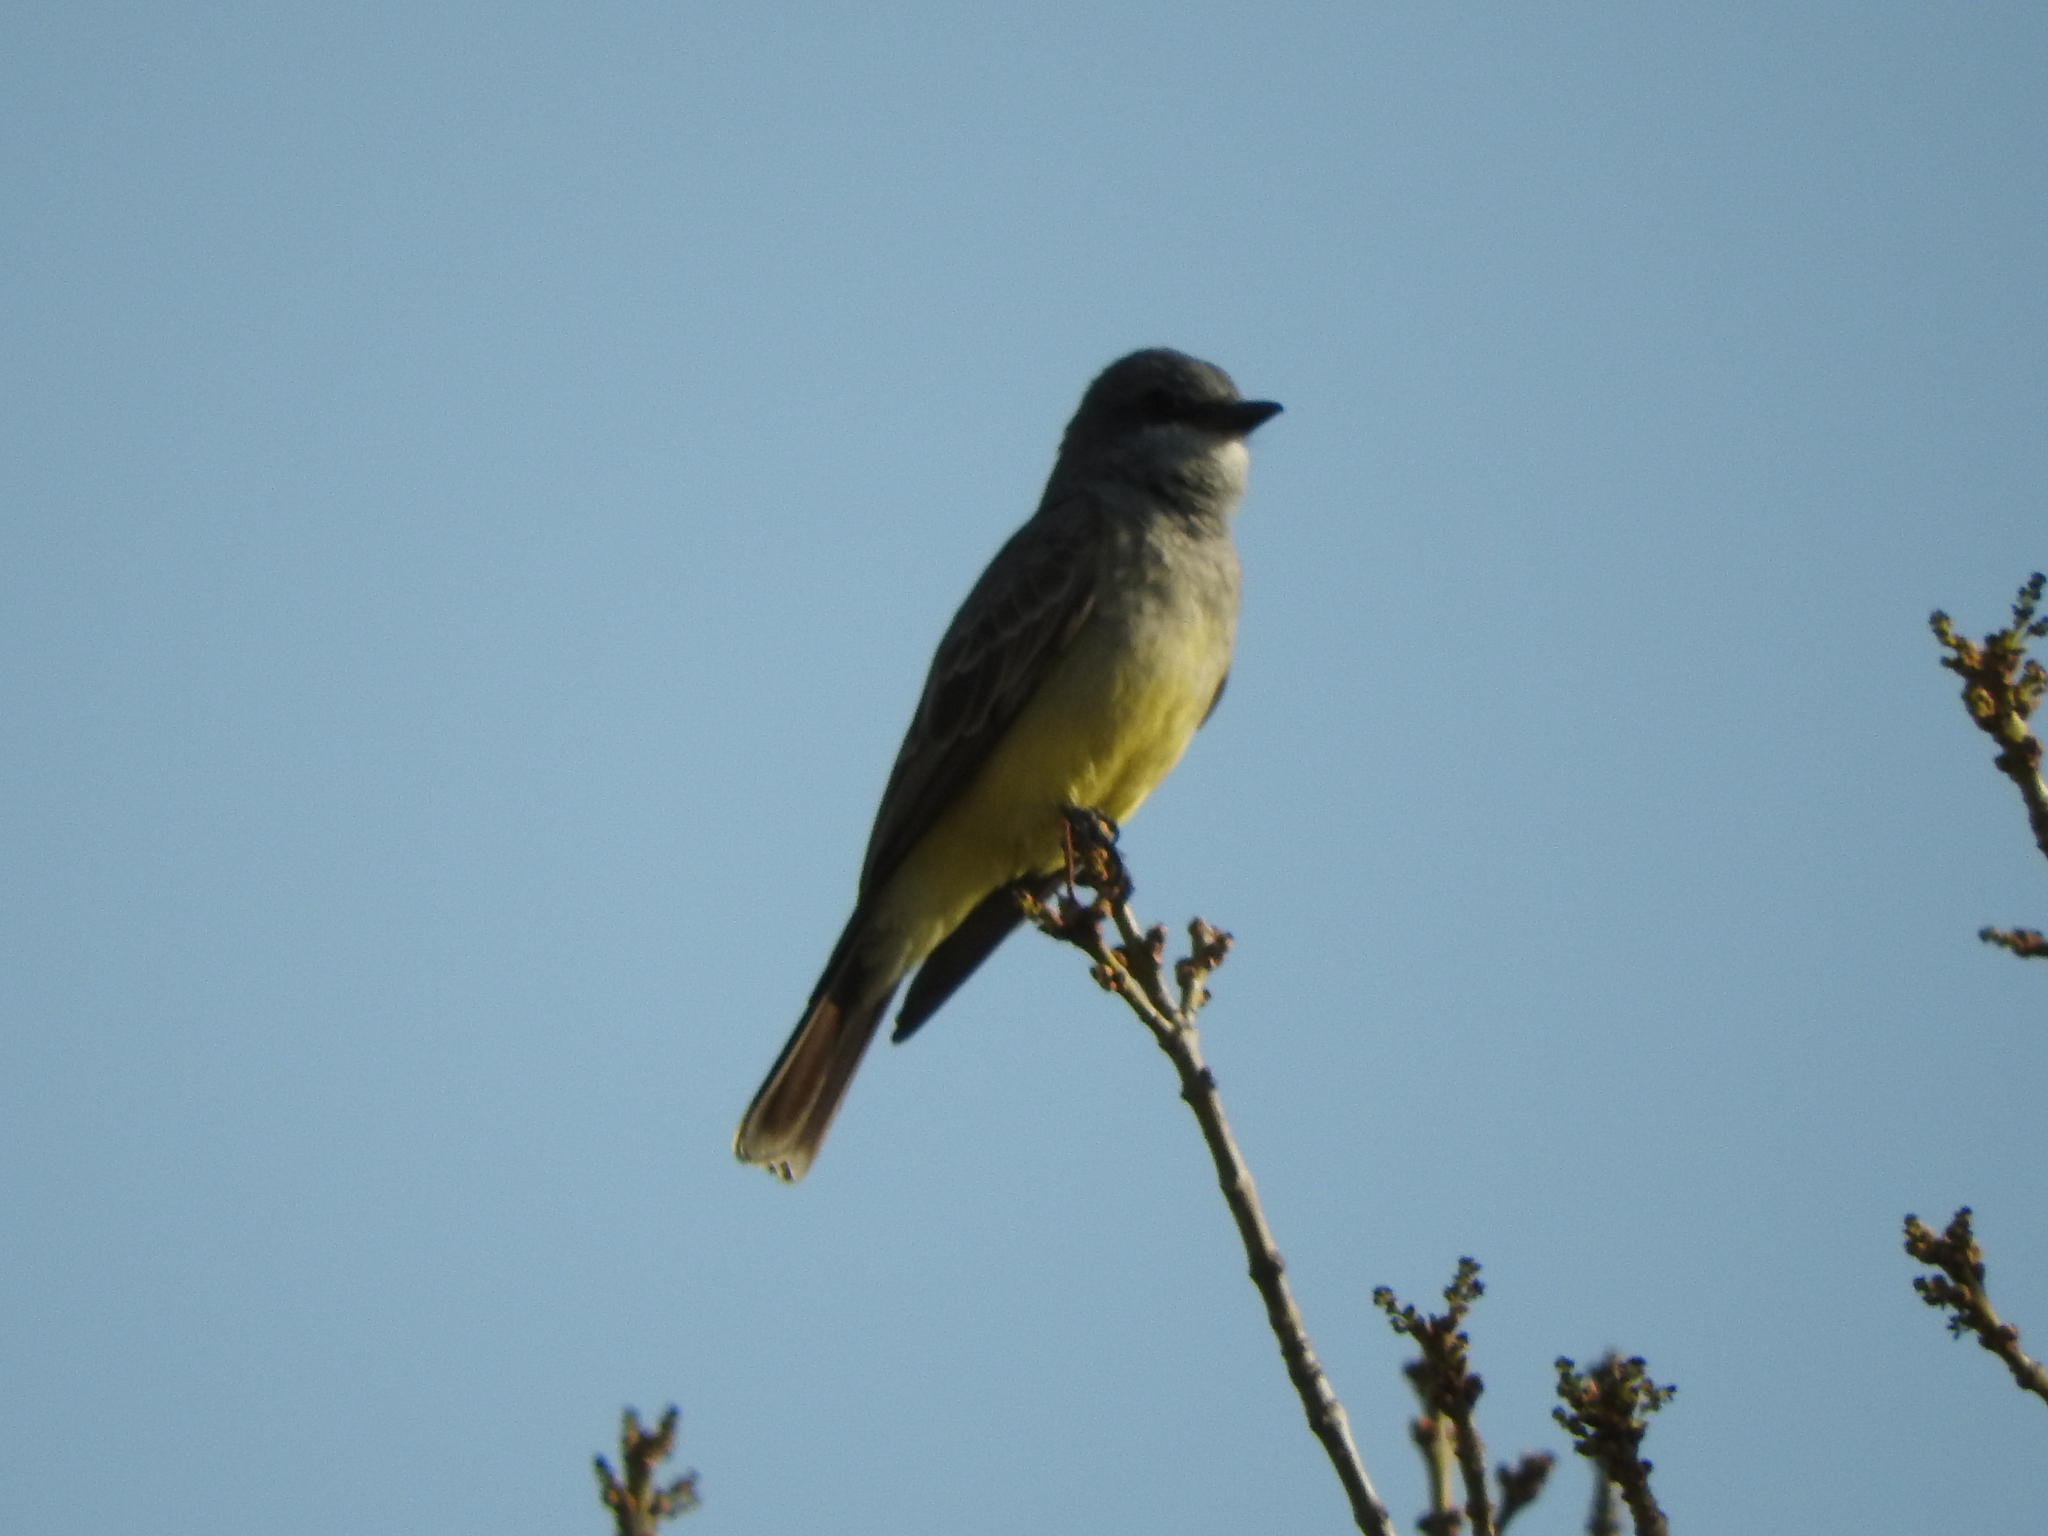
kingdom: Animalia
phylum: Chordata
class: Aves
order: Passeriformes
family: Tyrannidae
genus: Tyrannus
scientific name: Tyrannus vociferans
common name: Cassin's kingbird
